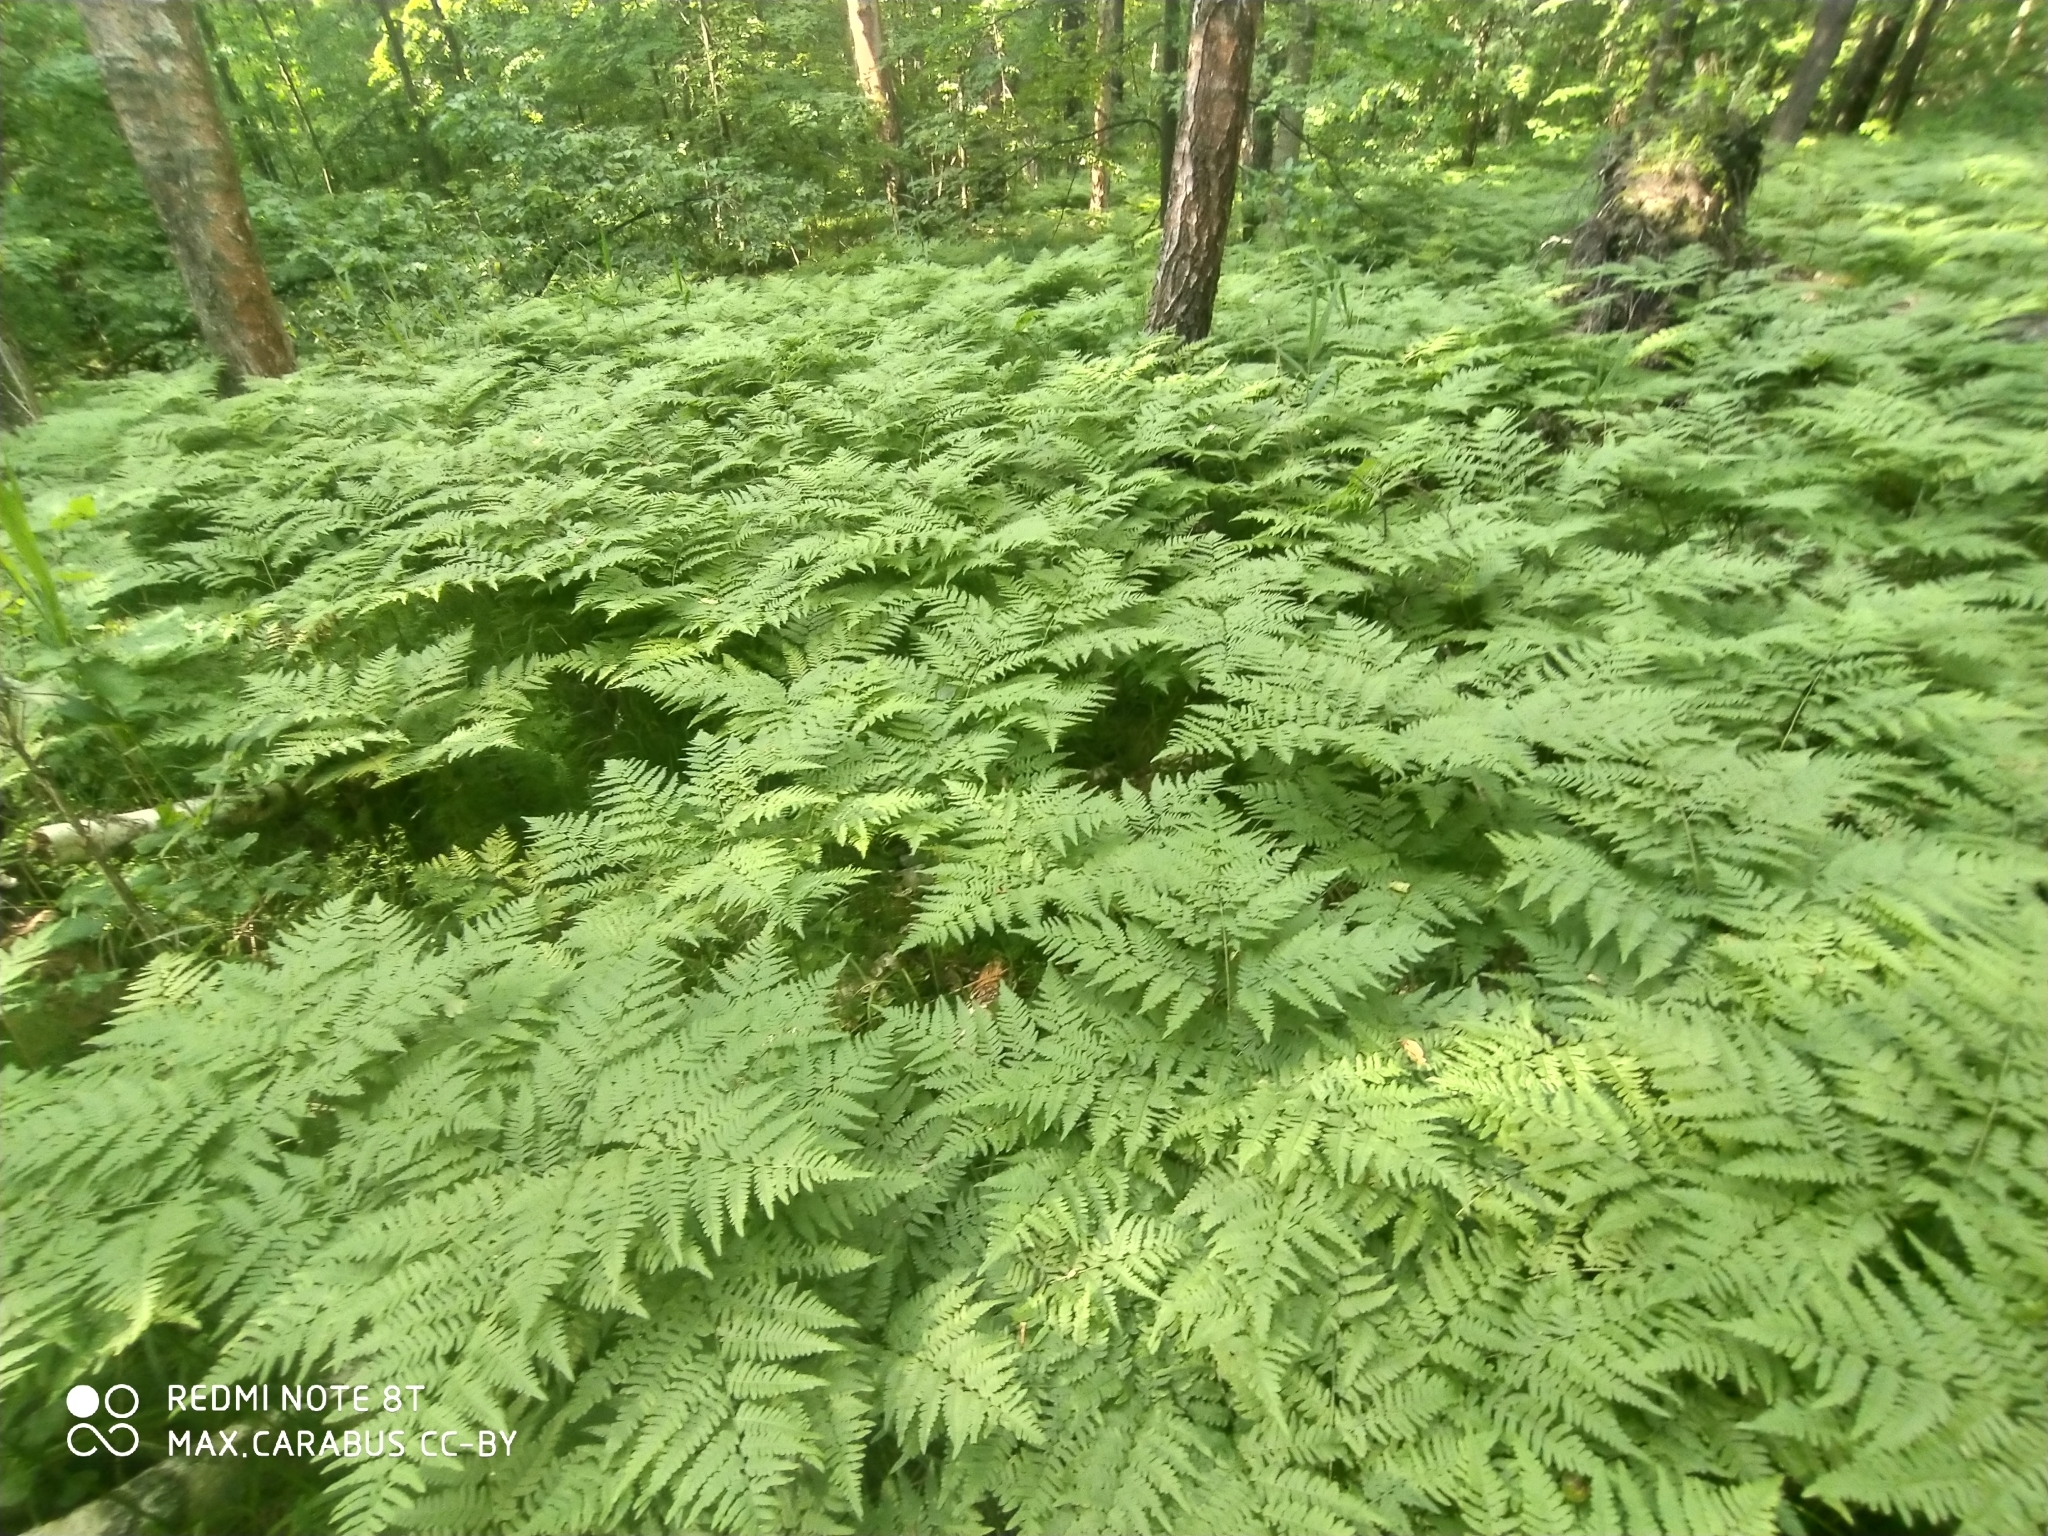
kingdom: Plantae
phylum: Tracheophyta
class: Polypodiopsida
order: Polypodiales
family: Dennstaedtiaceae
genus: Pteridium
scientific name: Pteridium aquilinum
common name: Bracken
